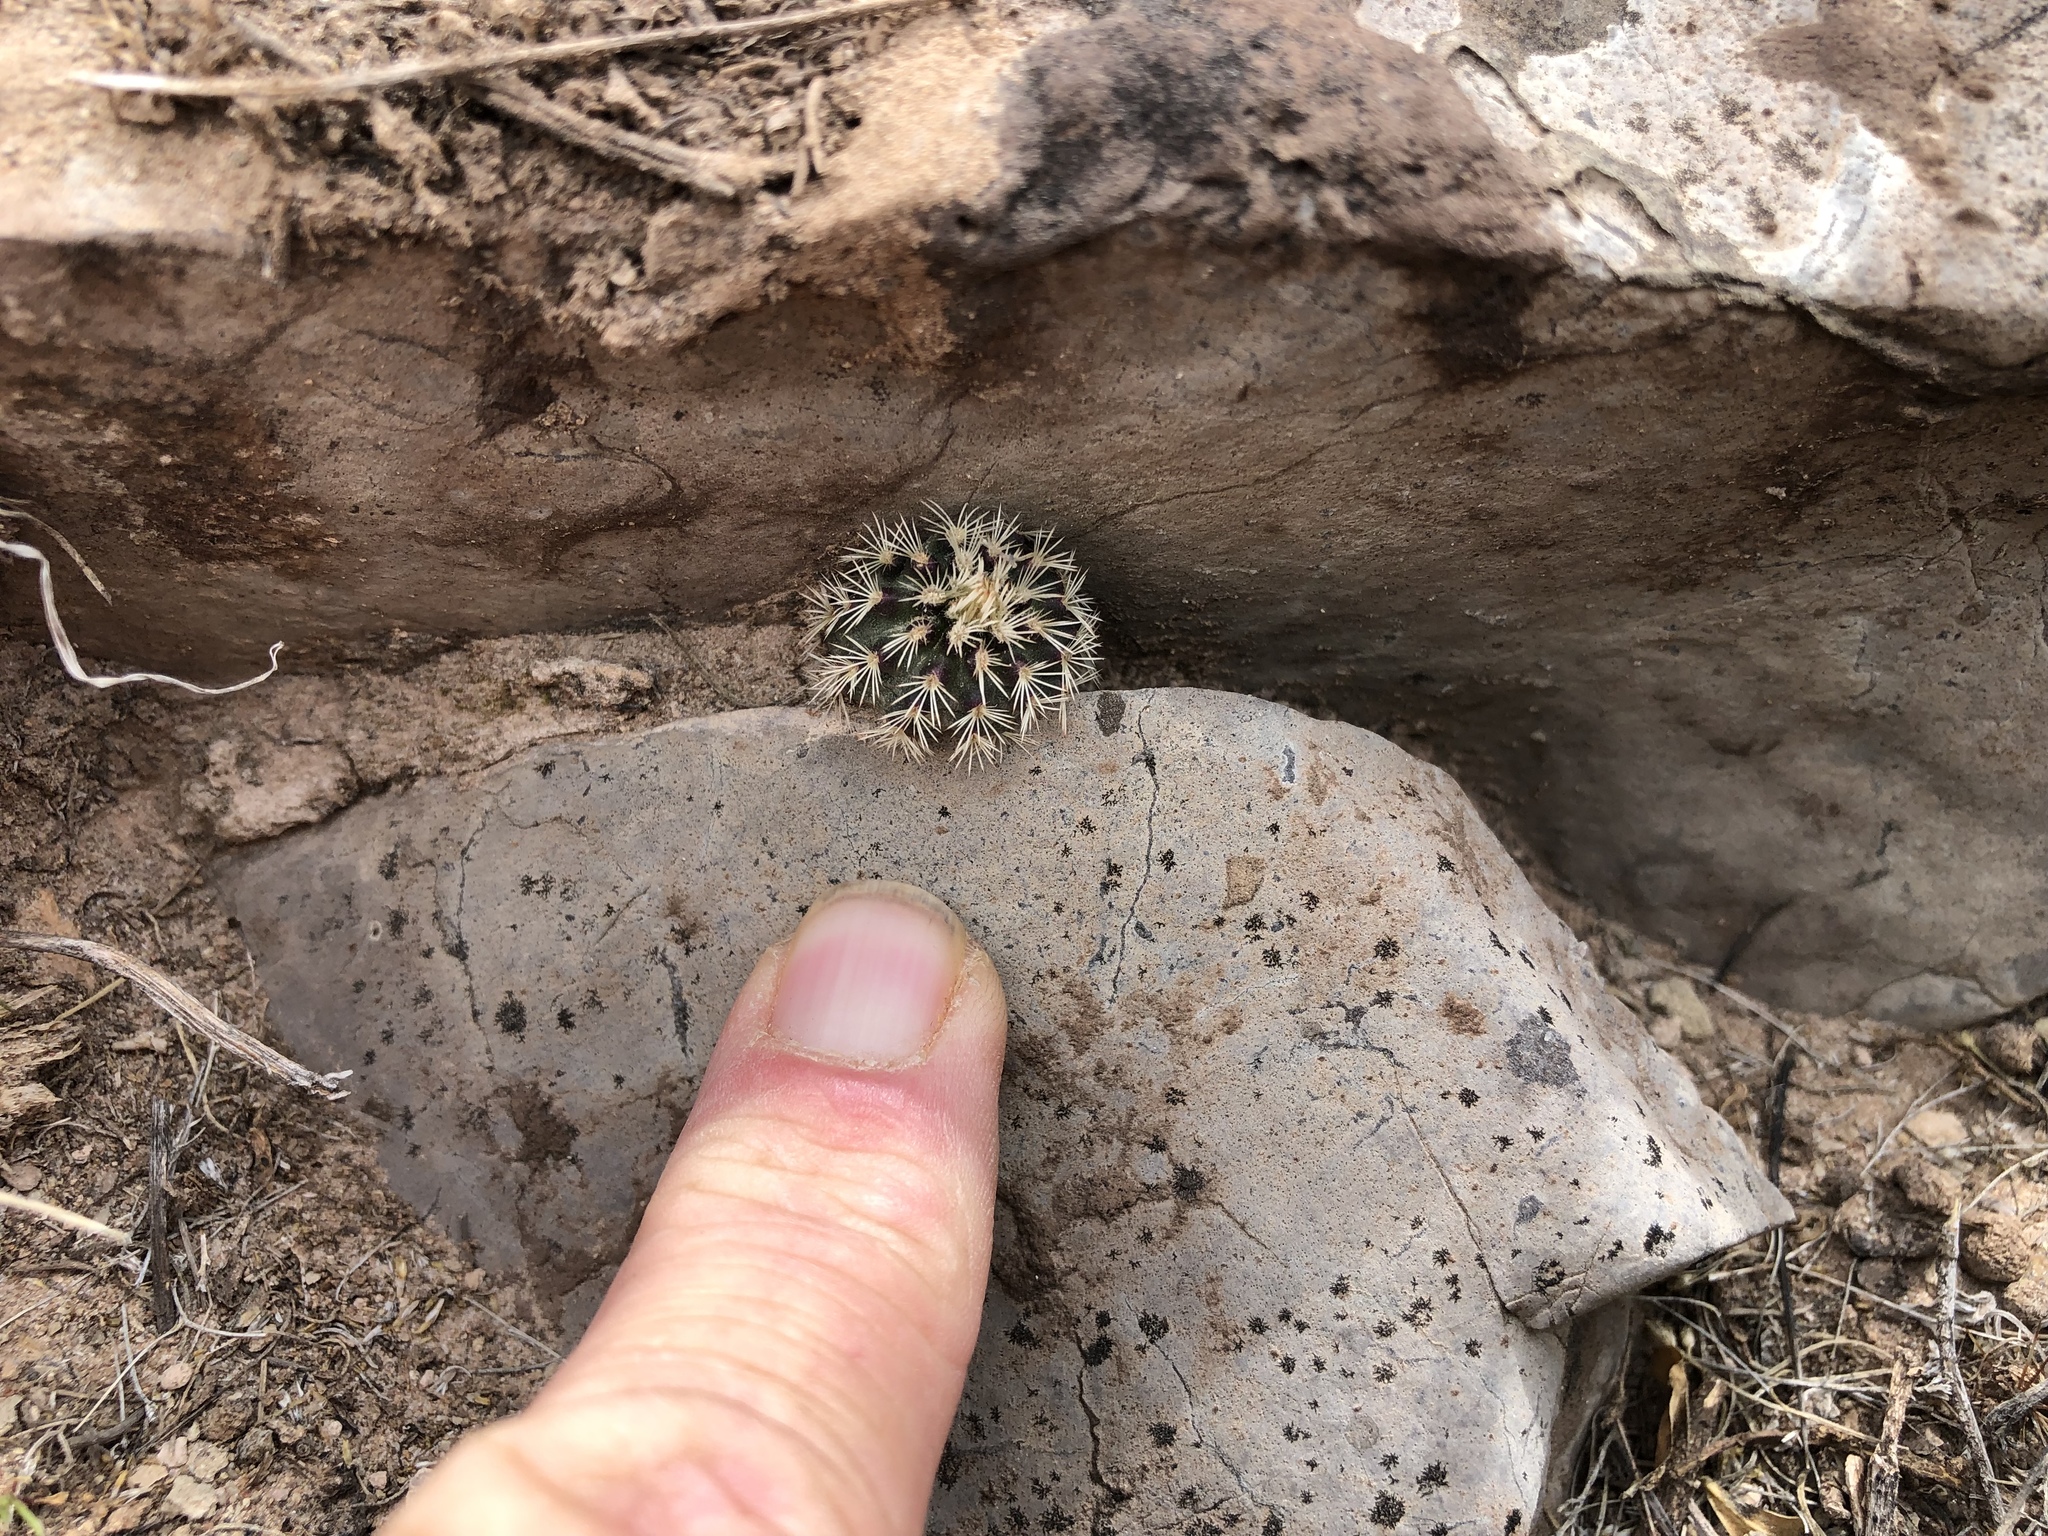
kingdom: Plantae
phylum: Tracheophyta
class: Magnoliopsida
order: Caryophyllales
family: Cactaceae
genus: Echinocereus
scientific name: Echinocereus viridiflorus
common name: Nylon hedgehog cactus
